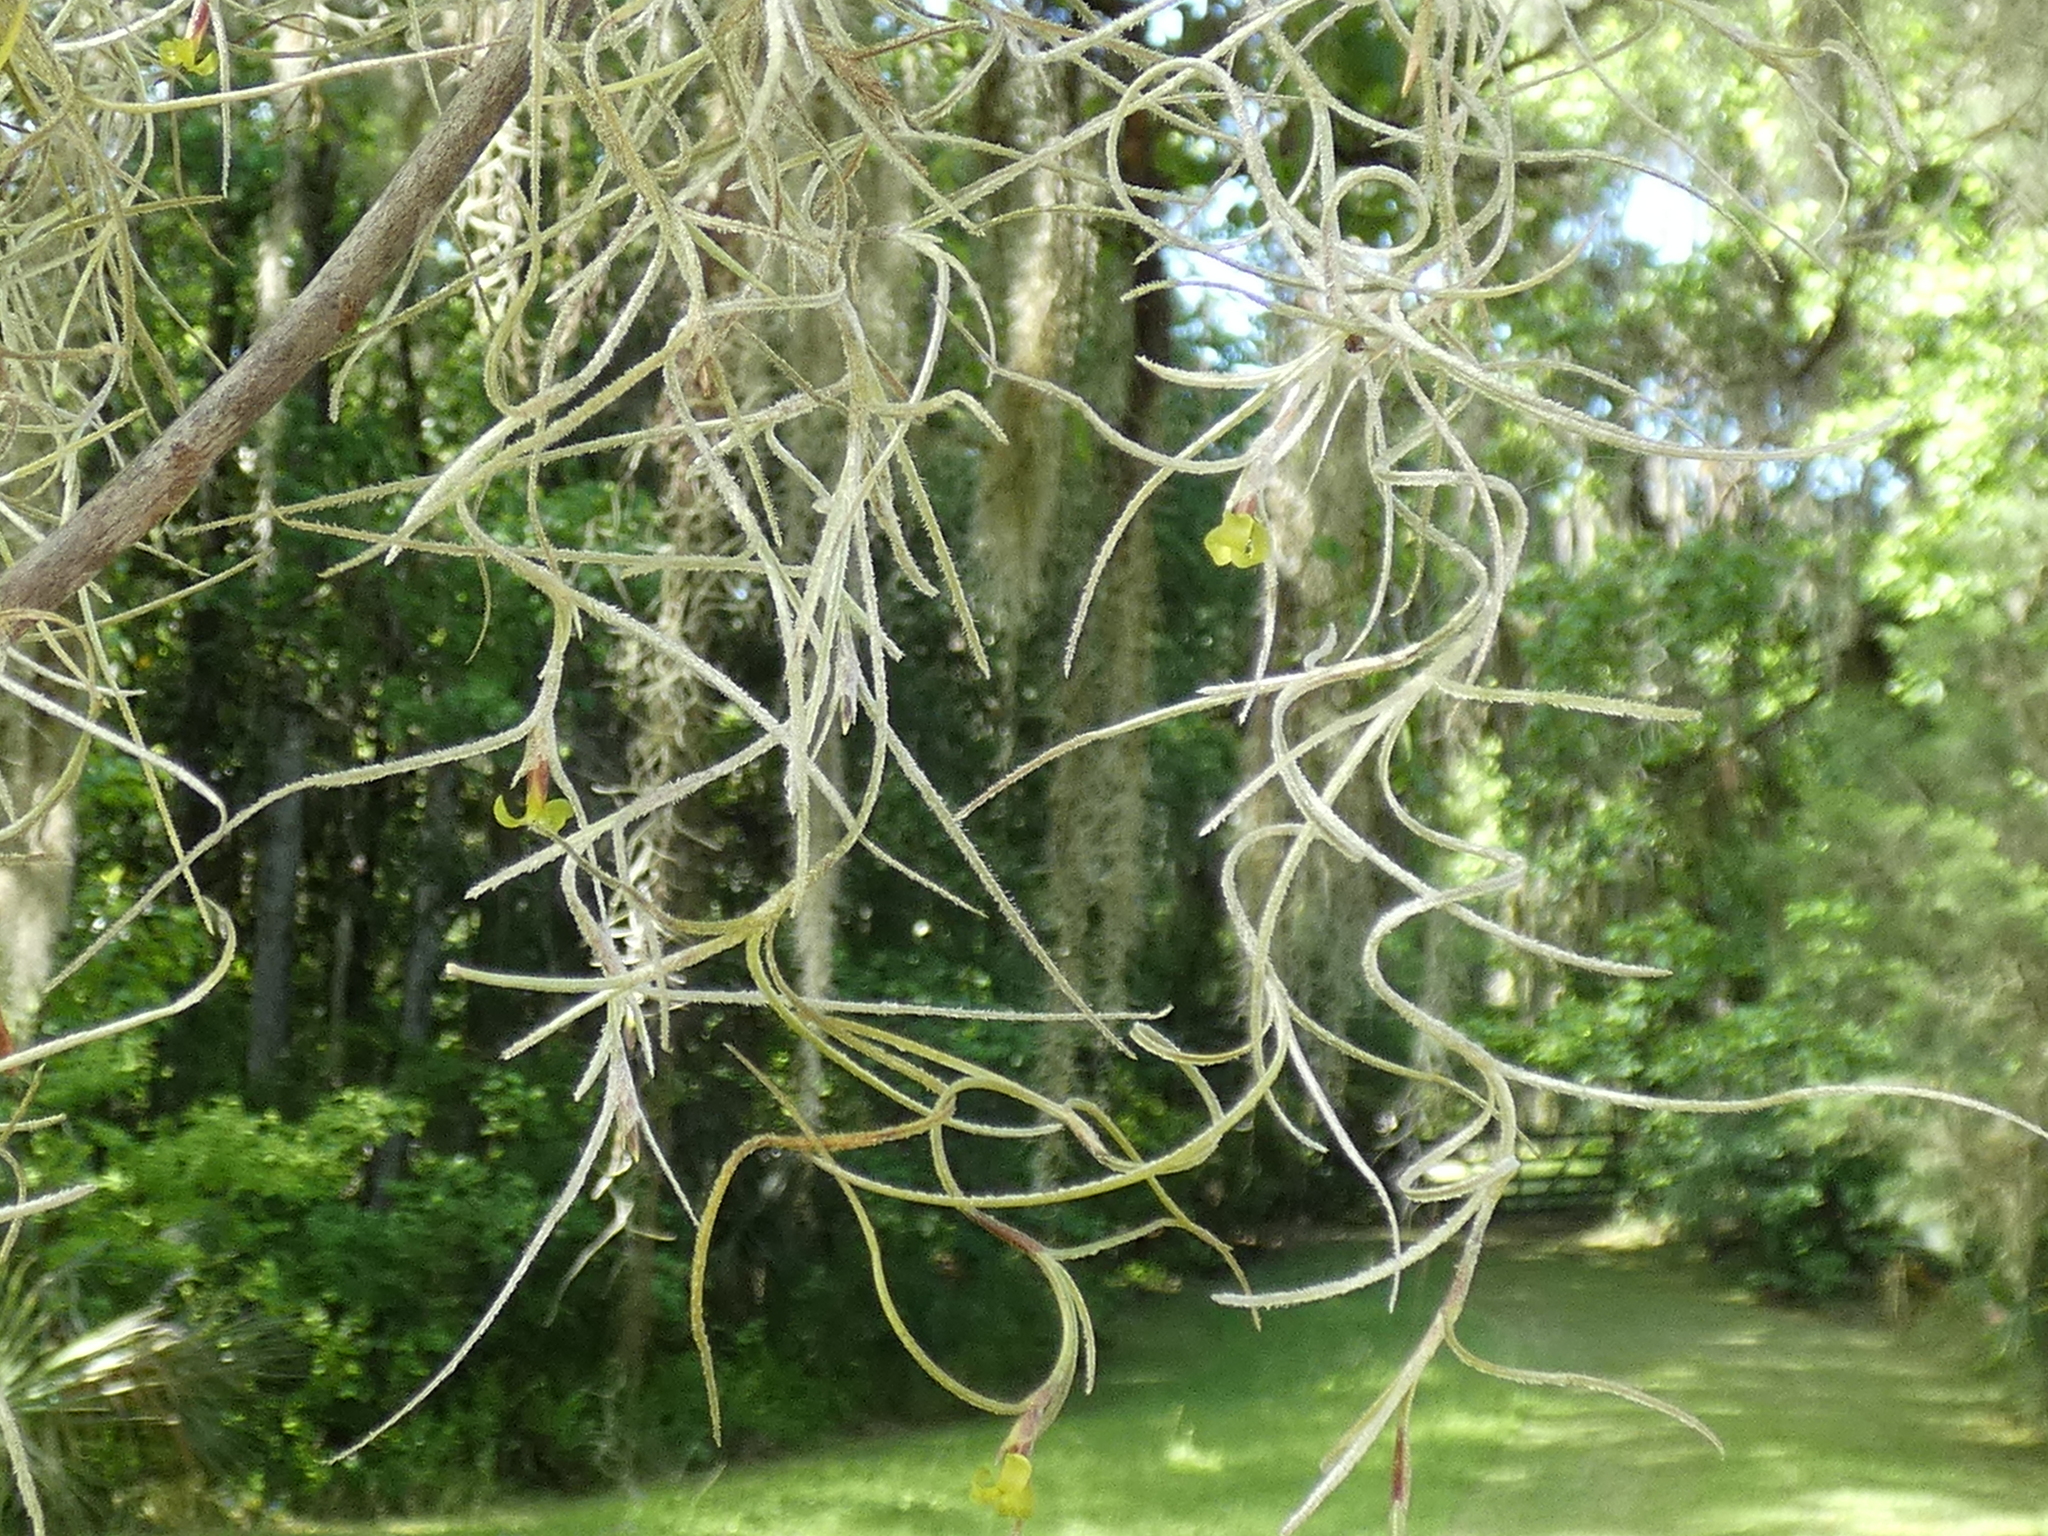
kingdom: Plantae
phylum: Tracheophyta
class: Liliopsida
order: Poales
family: Bromeliaceae
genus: Tillandsia
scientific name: Tillandsia usneoides
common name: Spanish moss
